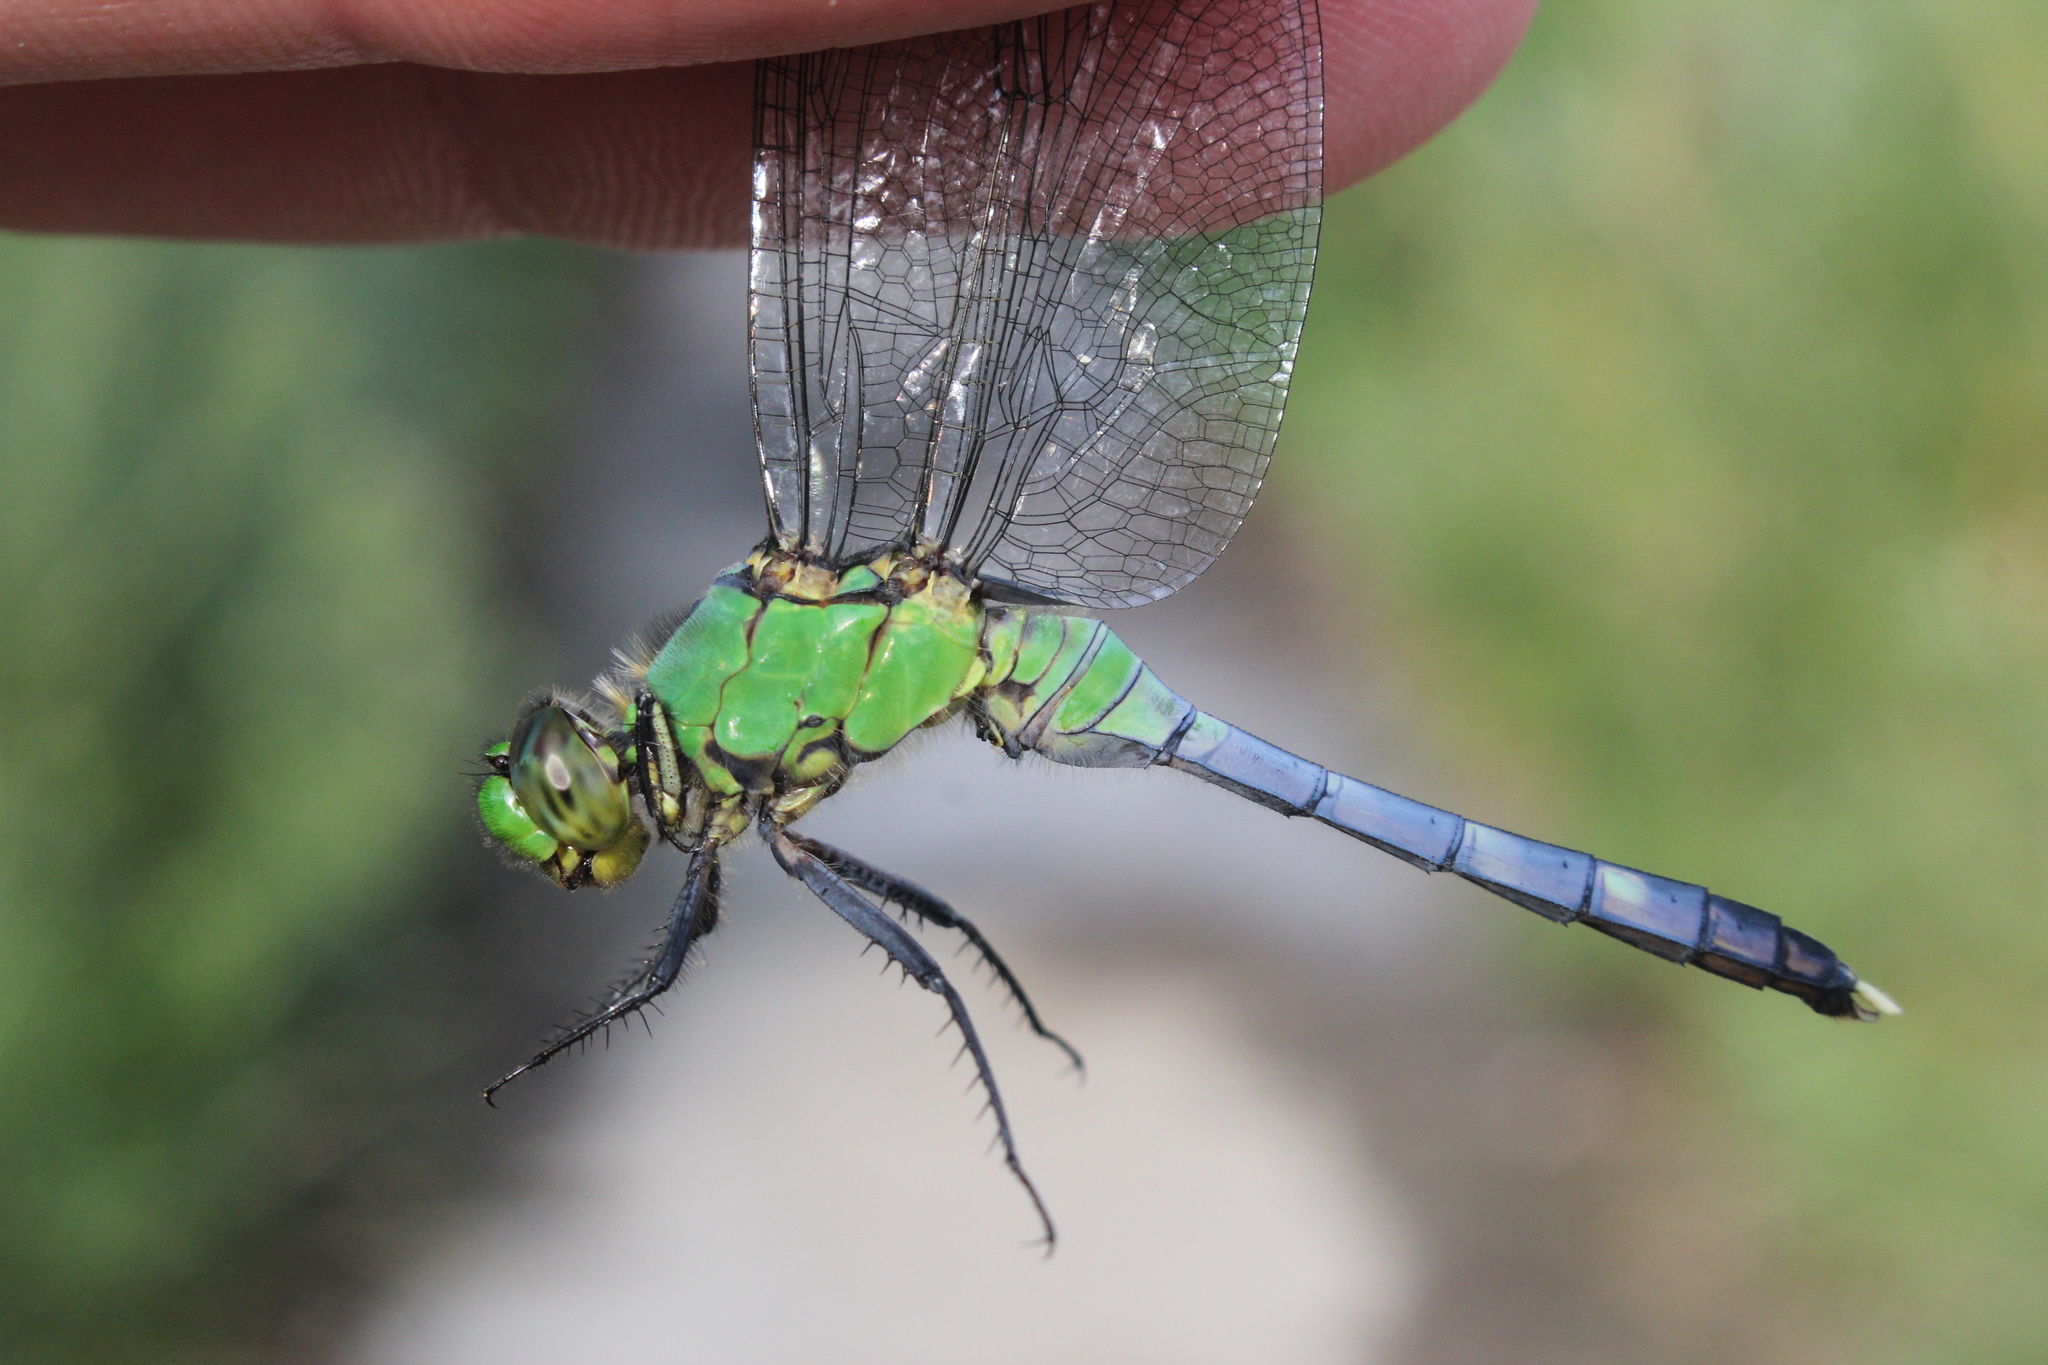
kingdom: Animalia
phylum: Arthropoda
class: Insecta
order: Odonata
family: Libellulidae
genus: Erythemis
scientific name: Erythemis simplicicollis
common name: Eastern pondhawk
